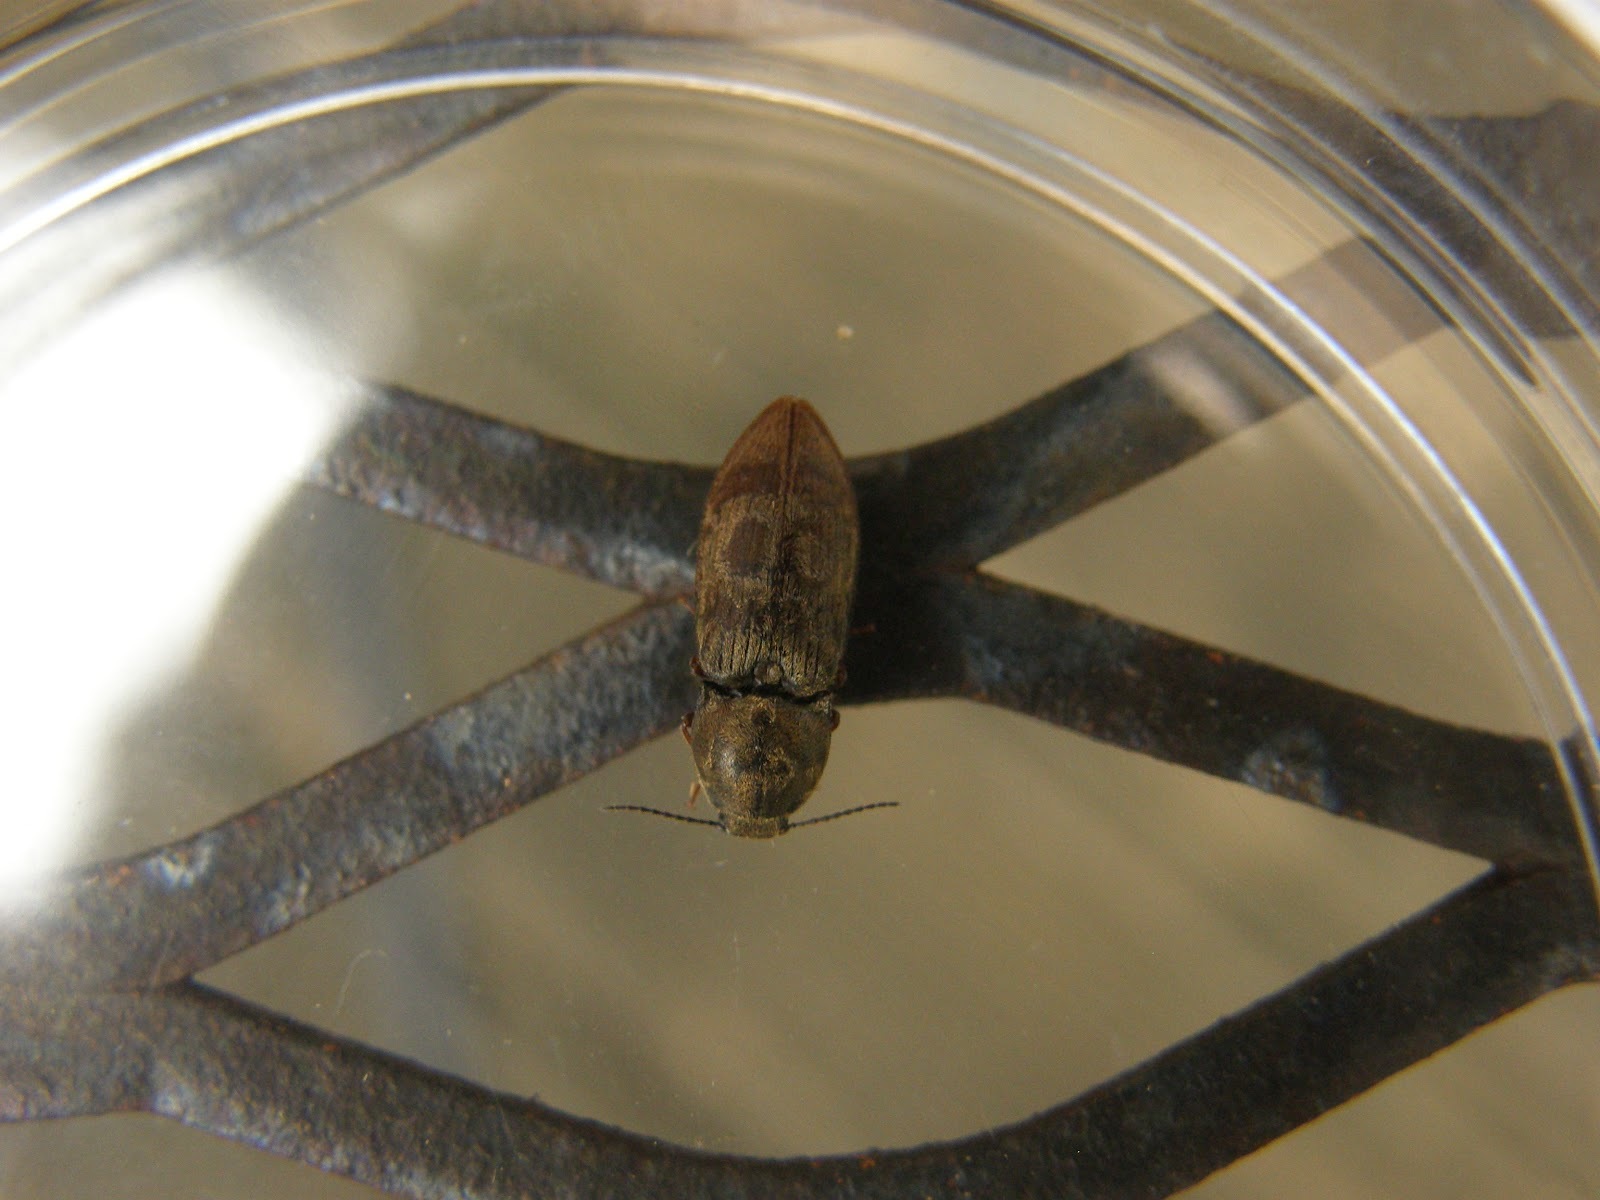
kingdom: Animalia
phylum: Arthropoda
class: Insecta
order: Coleoptera
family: Elateridae
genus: Prosternon
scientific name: Prosternon tessellatum
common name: Chequered click beetle
